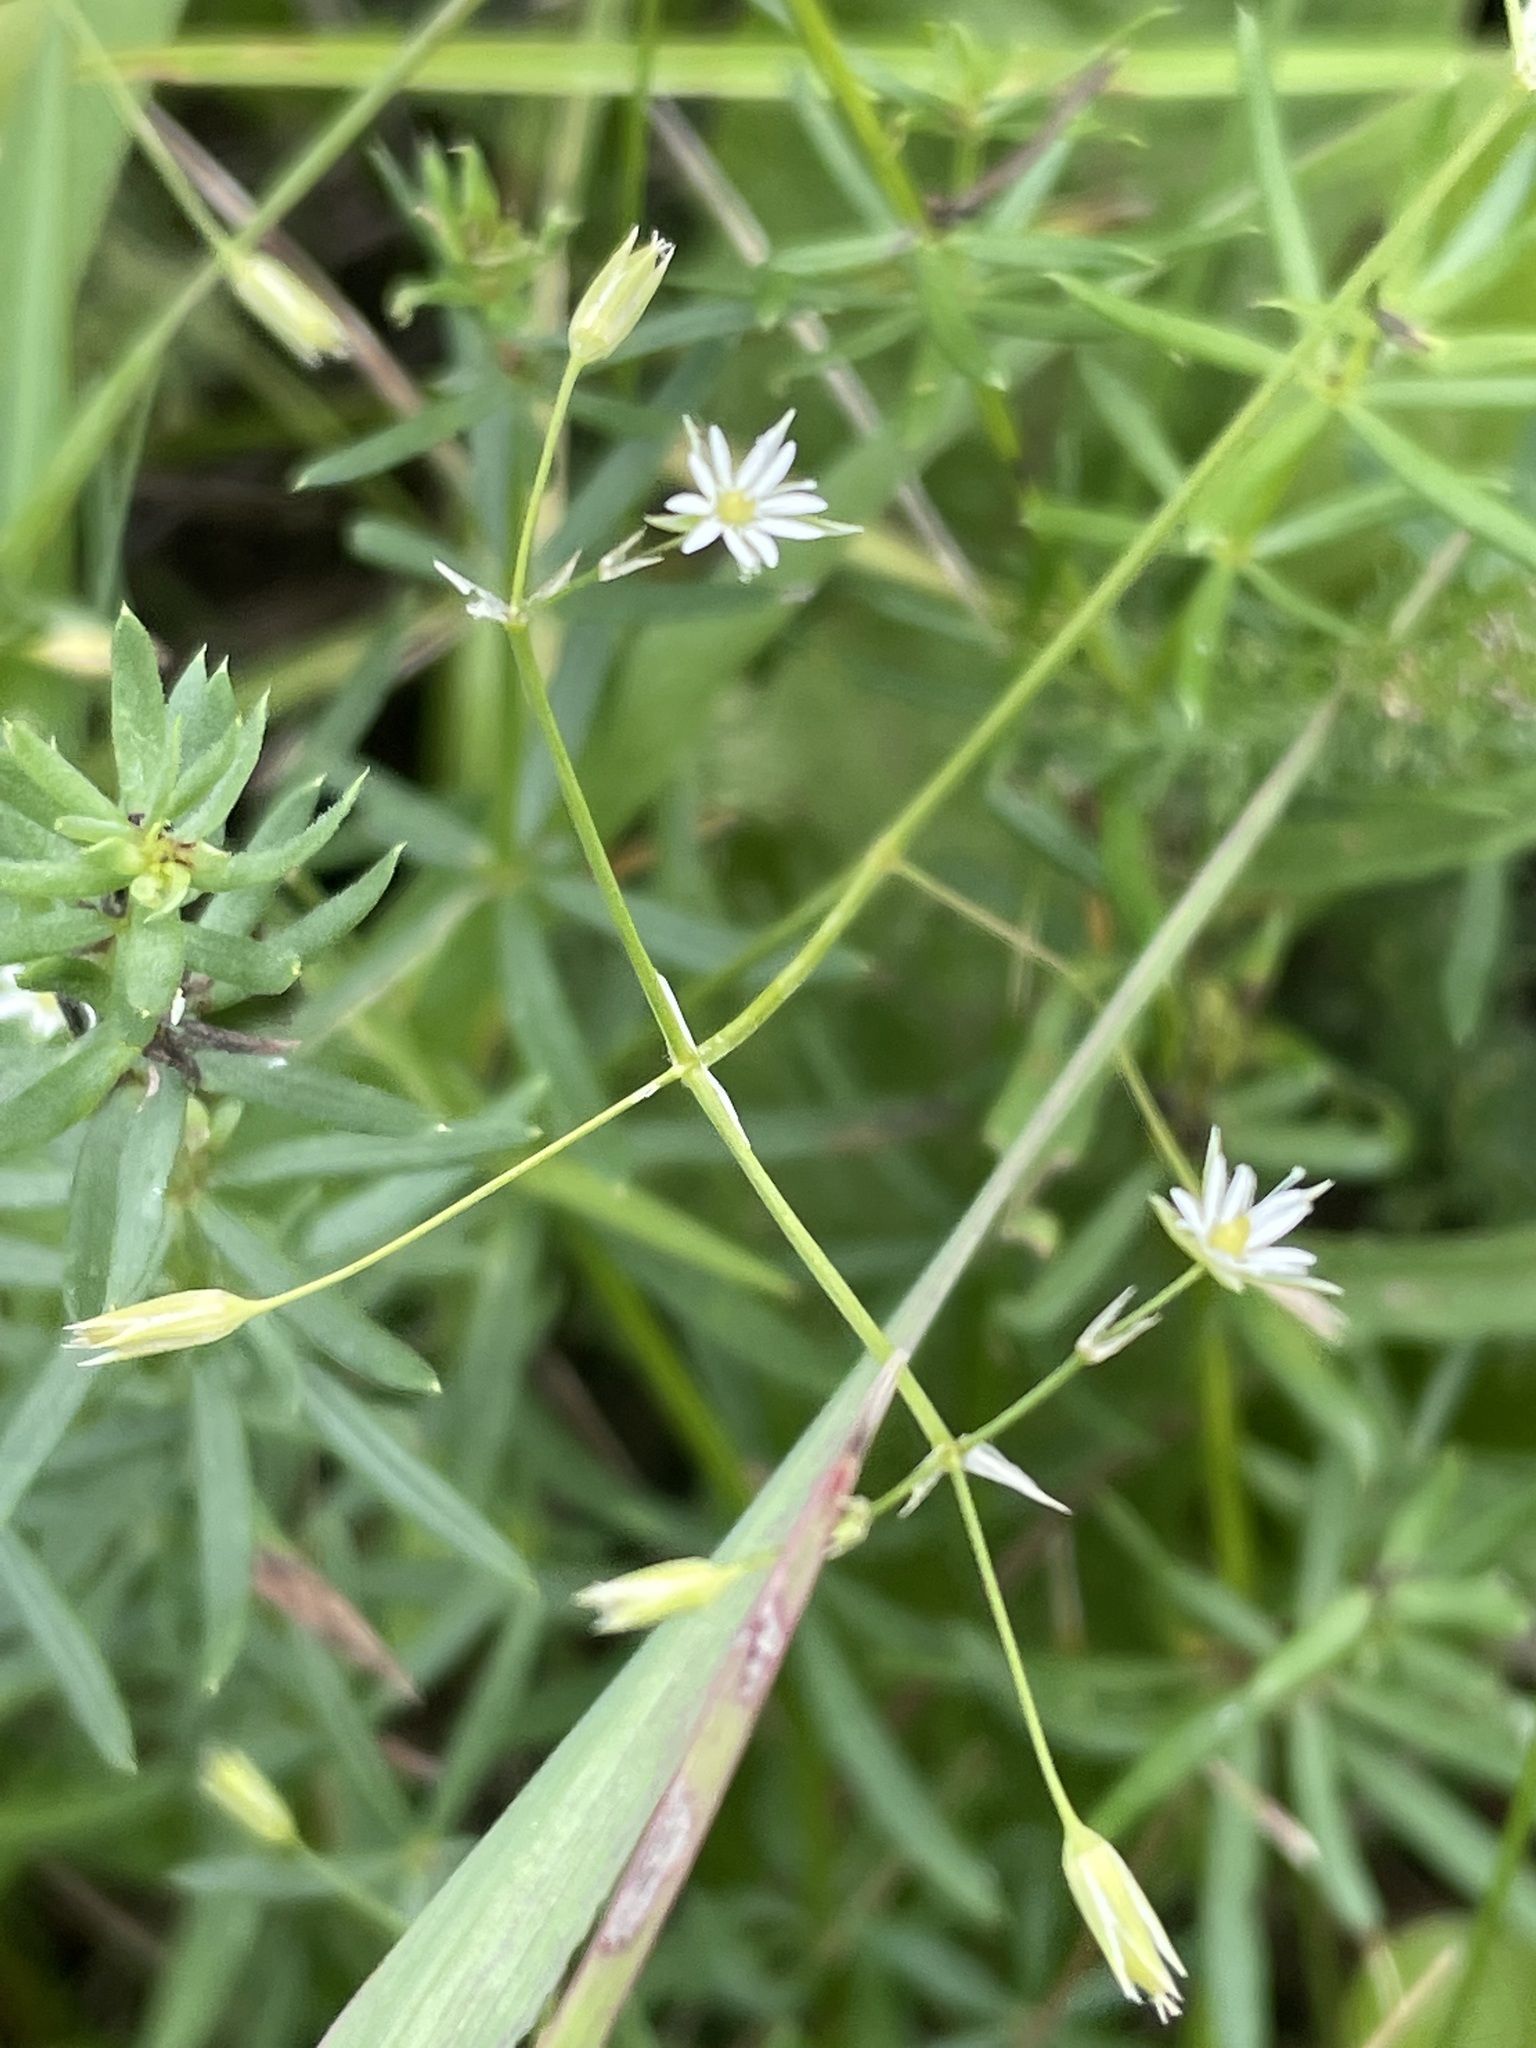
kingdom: Plantae
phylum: Tracheophyta
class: Magnoliopsida
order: Caryophyllales
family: Caryophyllaceae
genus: Stellaria
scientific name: Stellaria graminea
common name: Grass-like starwort
